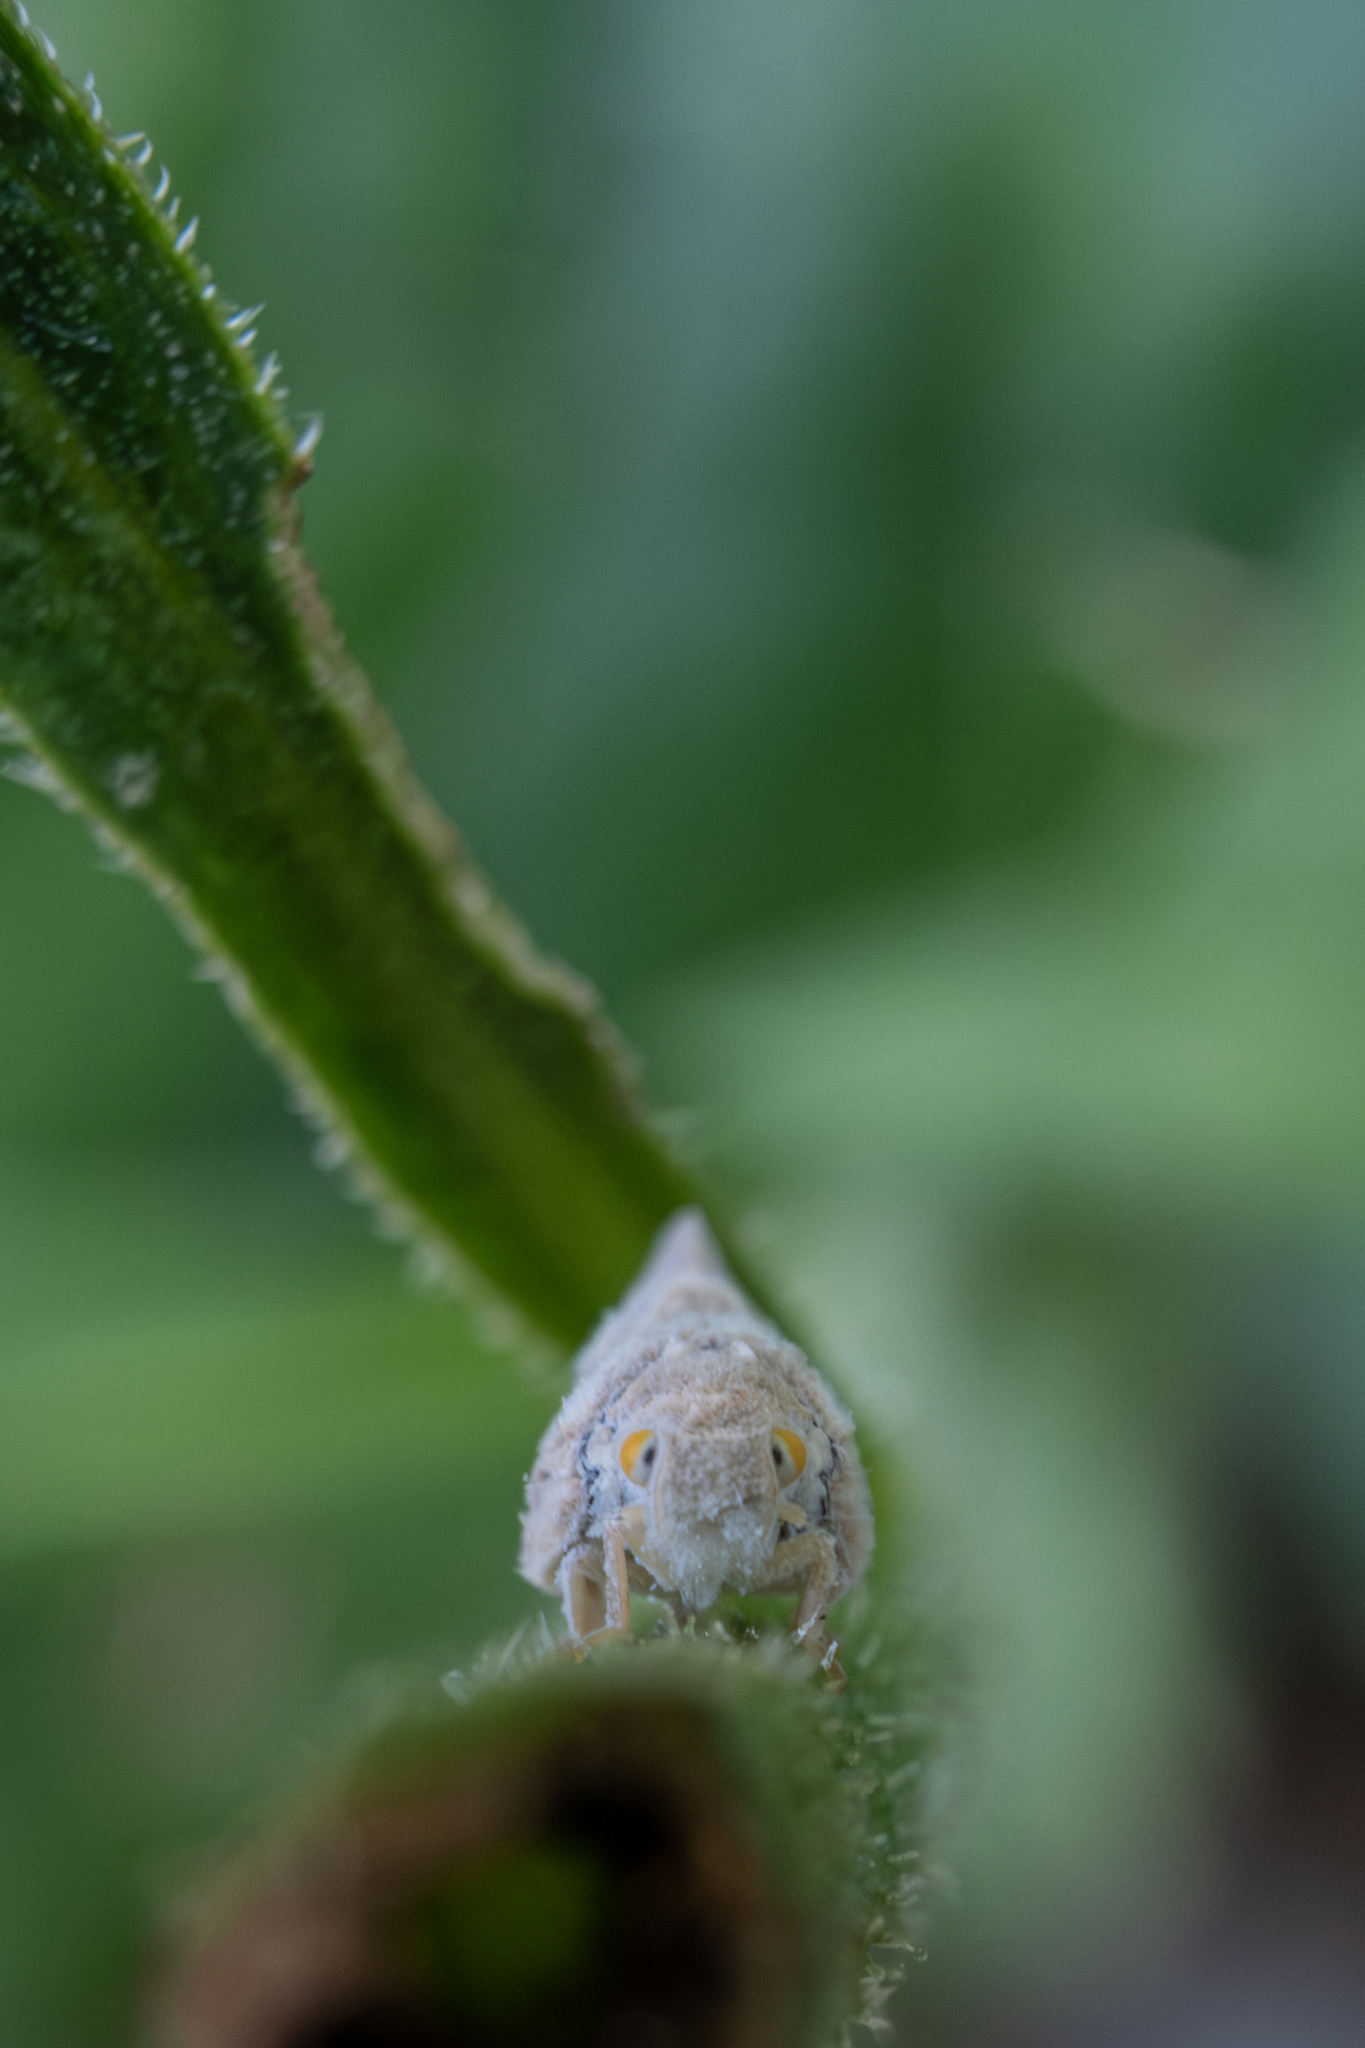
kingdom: Animalia
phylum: Arthropoda
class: Insecta
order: Hemiptera
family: Flatidae
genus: Metcalfa
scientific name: Metcalfa pruinosa
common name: Citrus flatid planthopper
